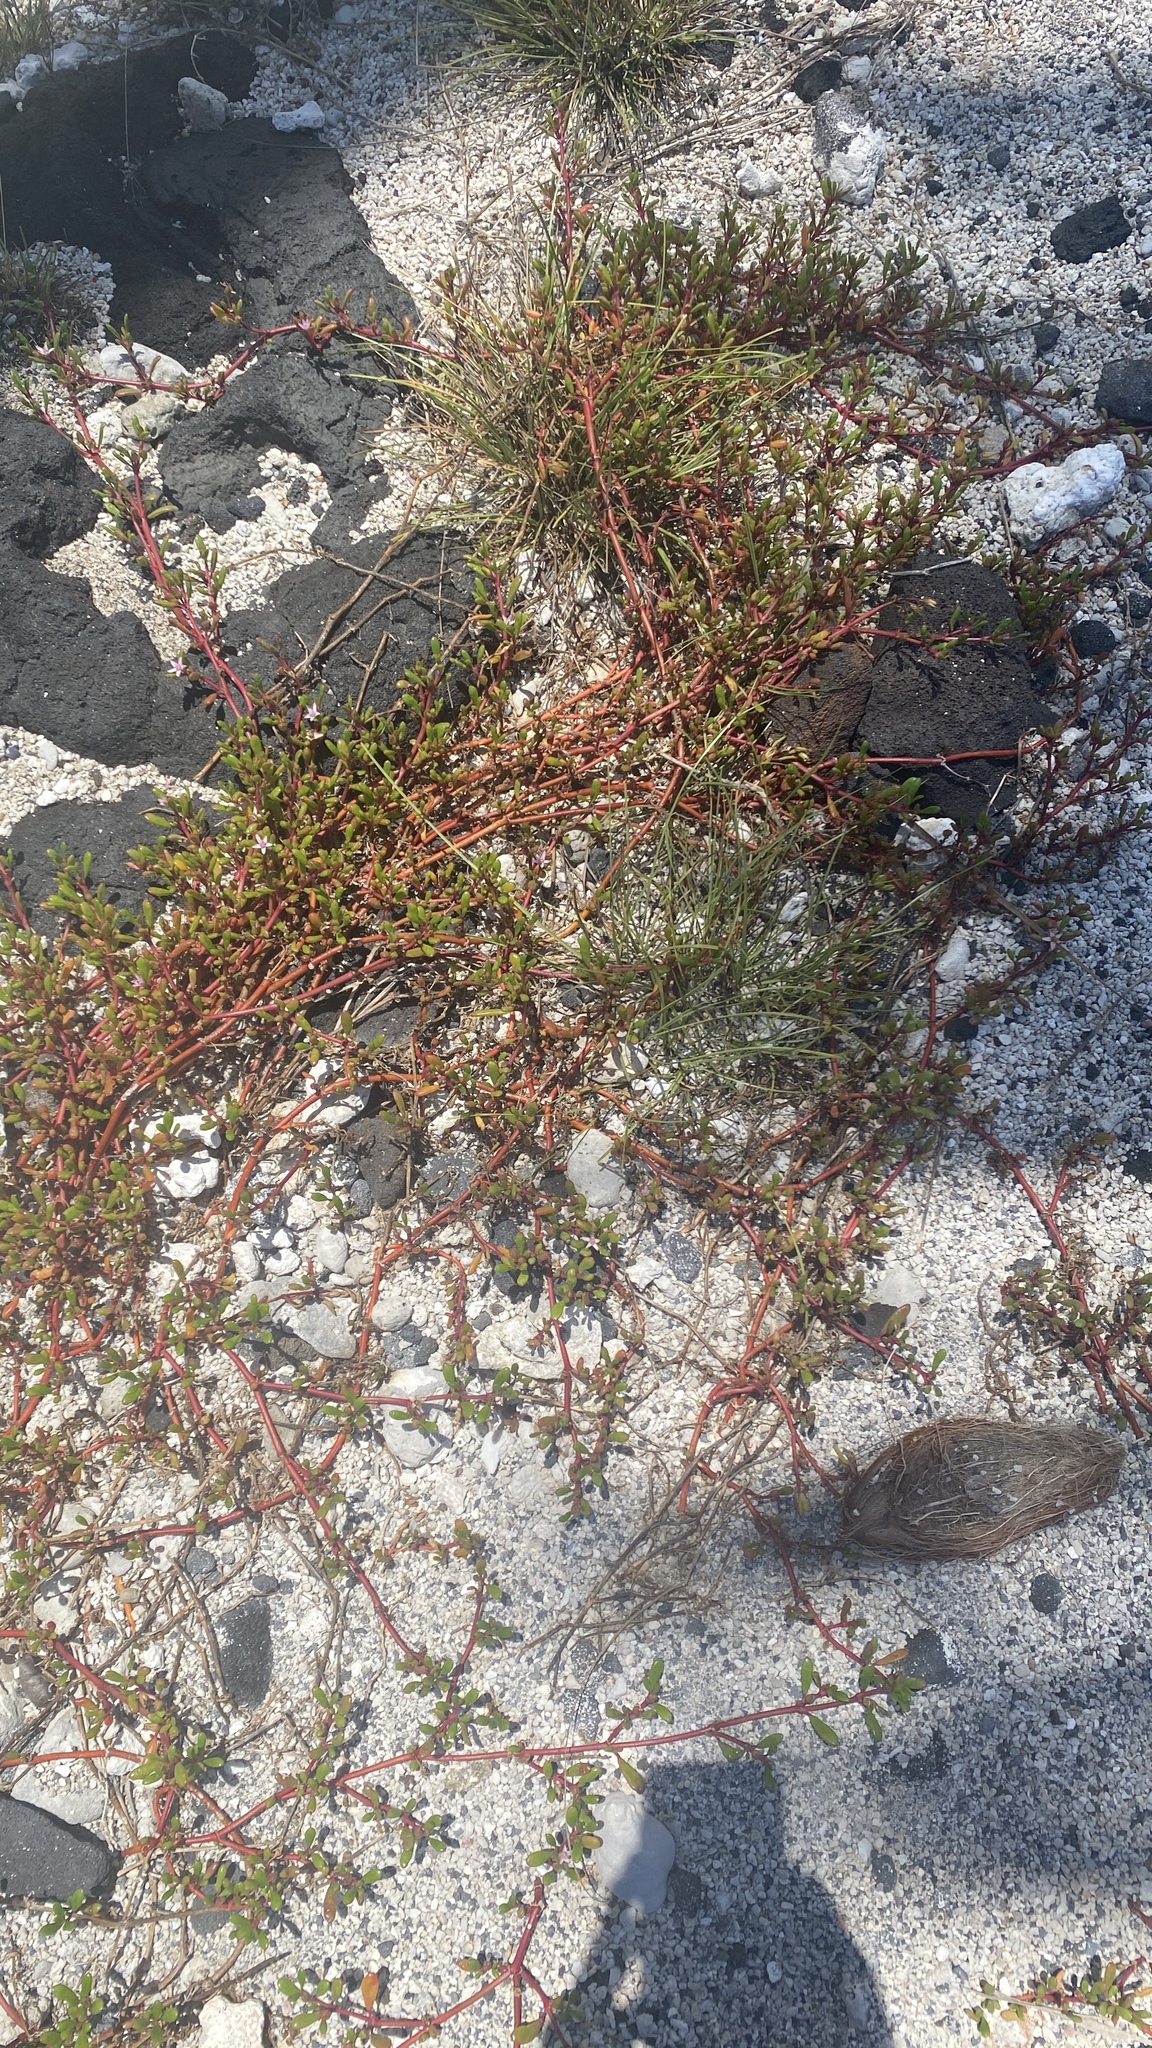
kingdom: Plantae
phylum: Tracheophyta
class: Magnoliopsida
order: Caryophyllales
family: Aizoaceae
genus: Sesuvium
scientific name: Sesuvium portulacastrum
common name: Sea-purslane
